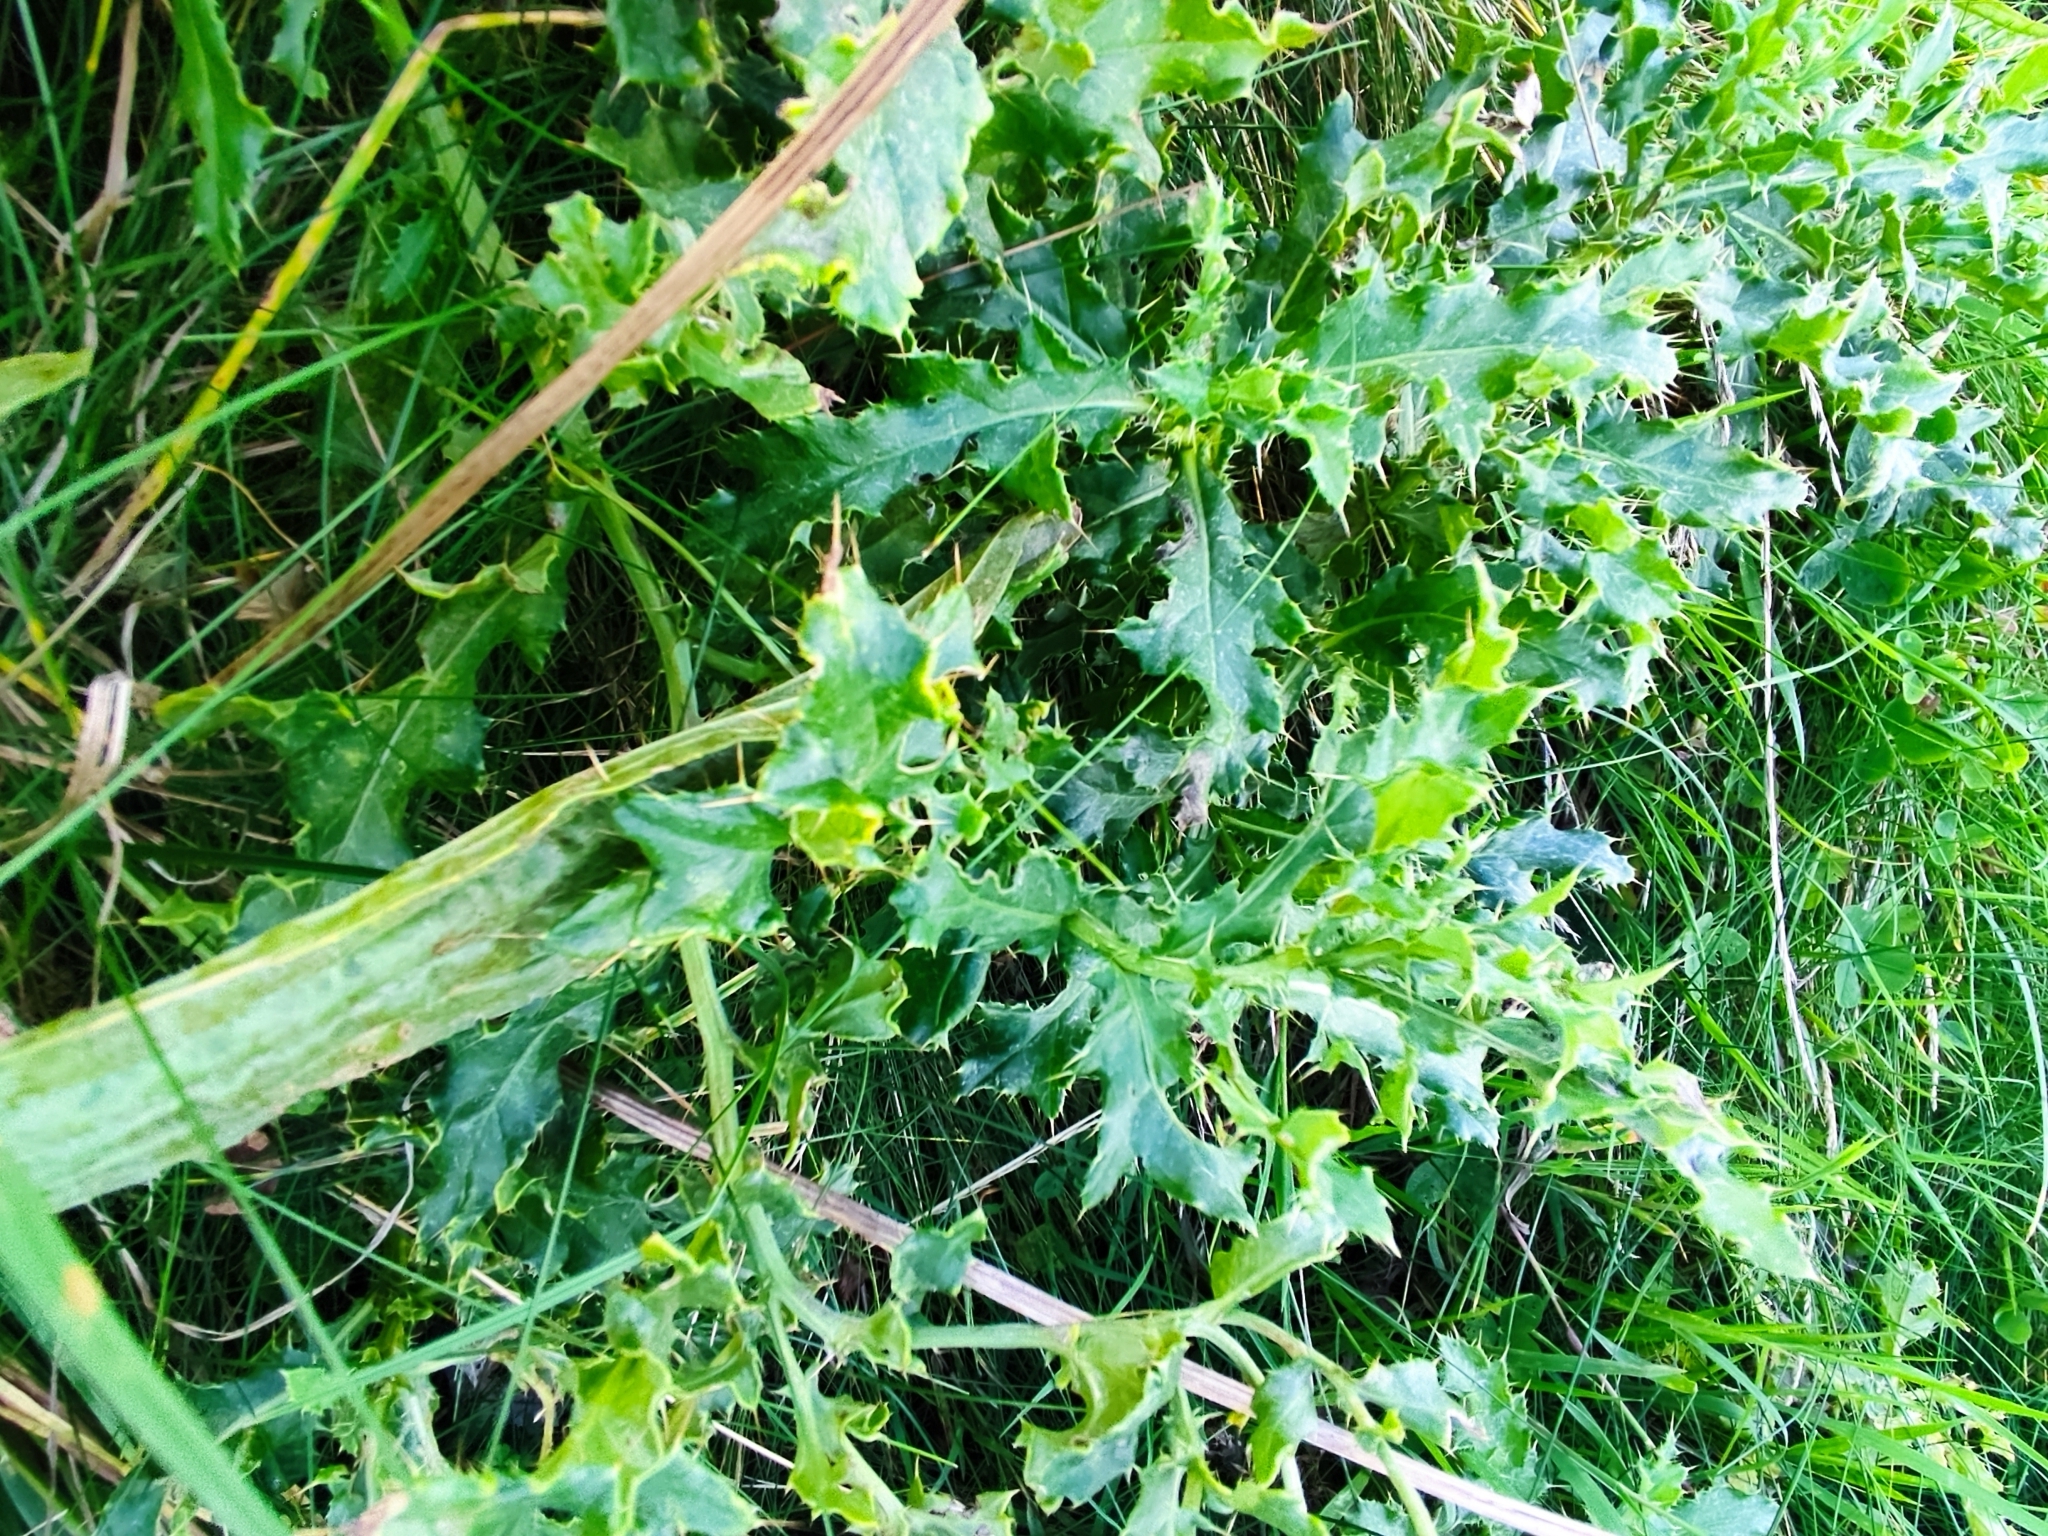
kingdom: Plantae
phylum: Tracheophyta
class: Magnoliopsida
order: Asterales
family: Asteraceae
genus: Cirsium
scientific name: Cirsium arvense
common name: Creeping thistle
